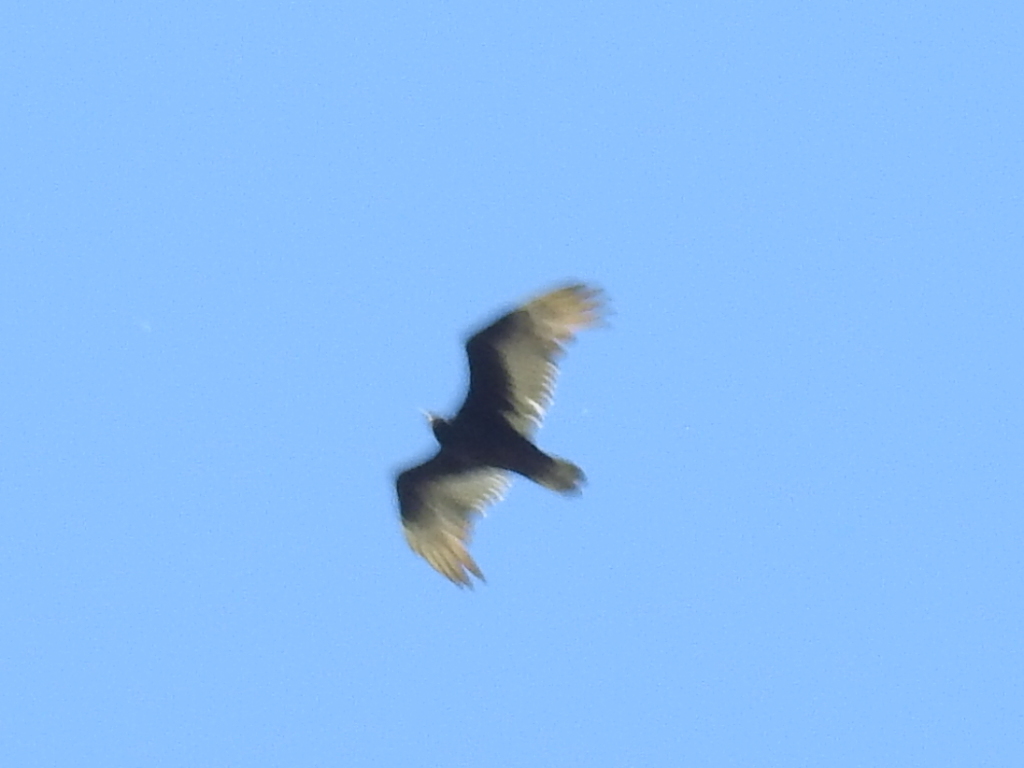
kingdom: Animalia
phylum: Chordata
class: Aves
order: Accipitriformes
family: Cathartidae
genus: Cathartes
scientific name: Cathartes aura
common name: Turkey vulture
